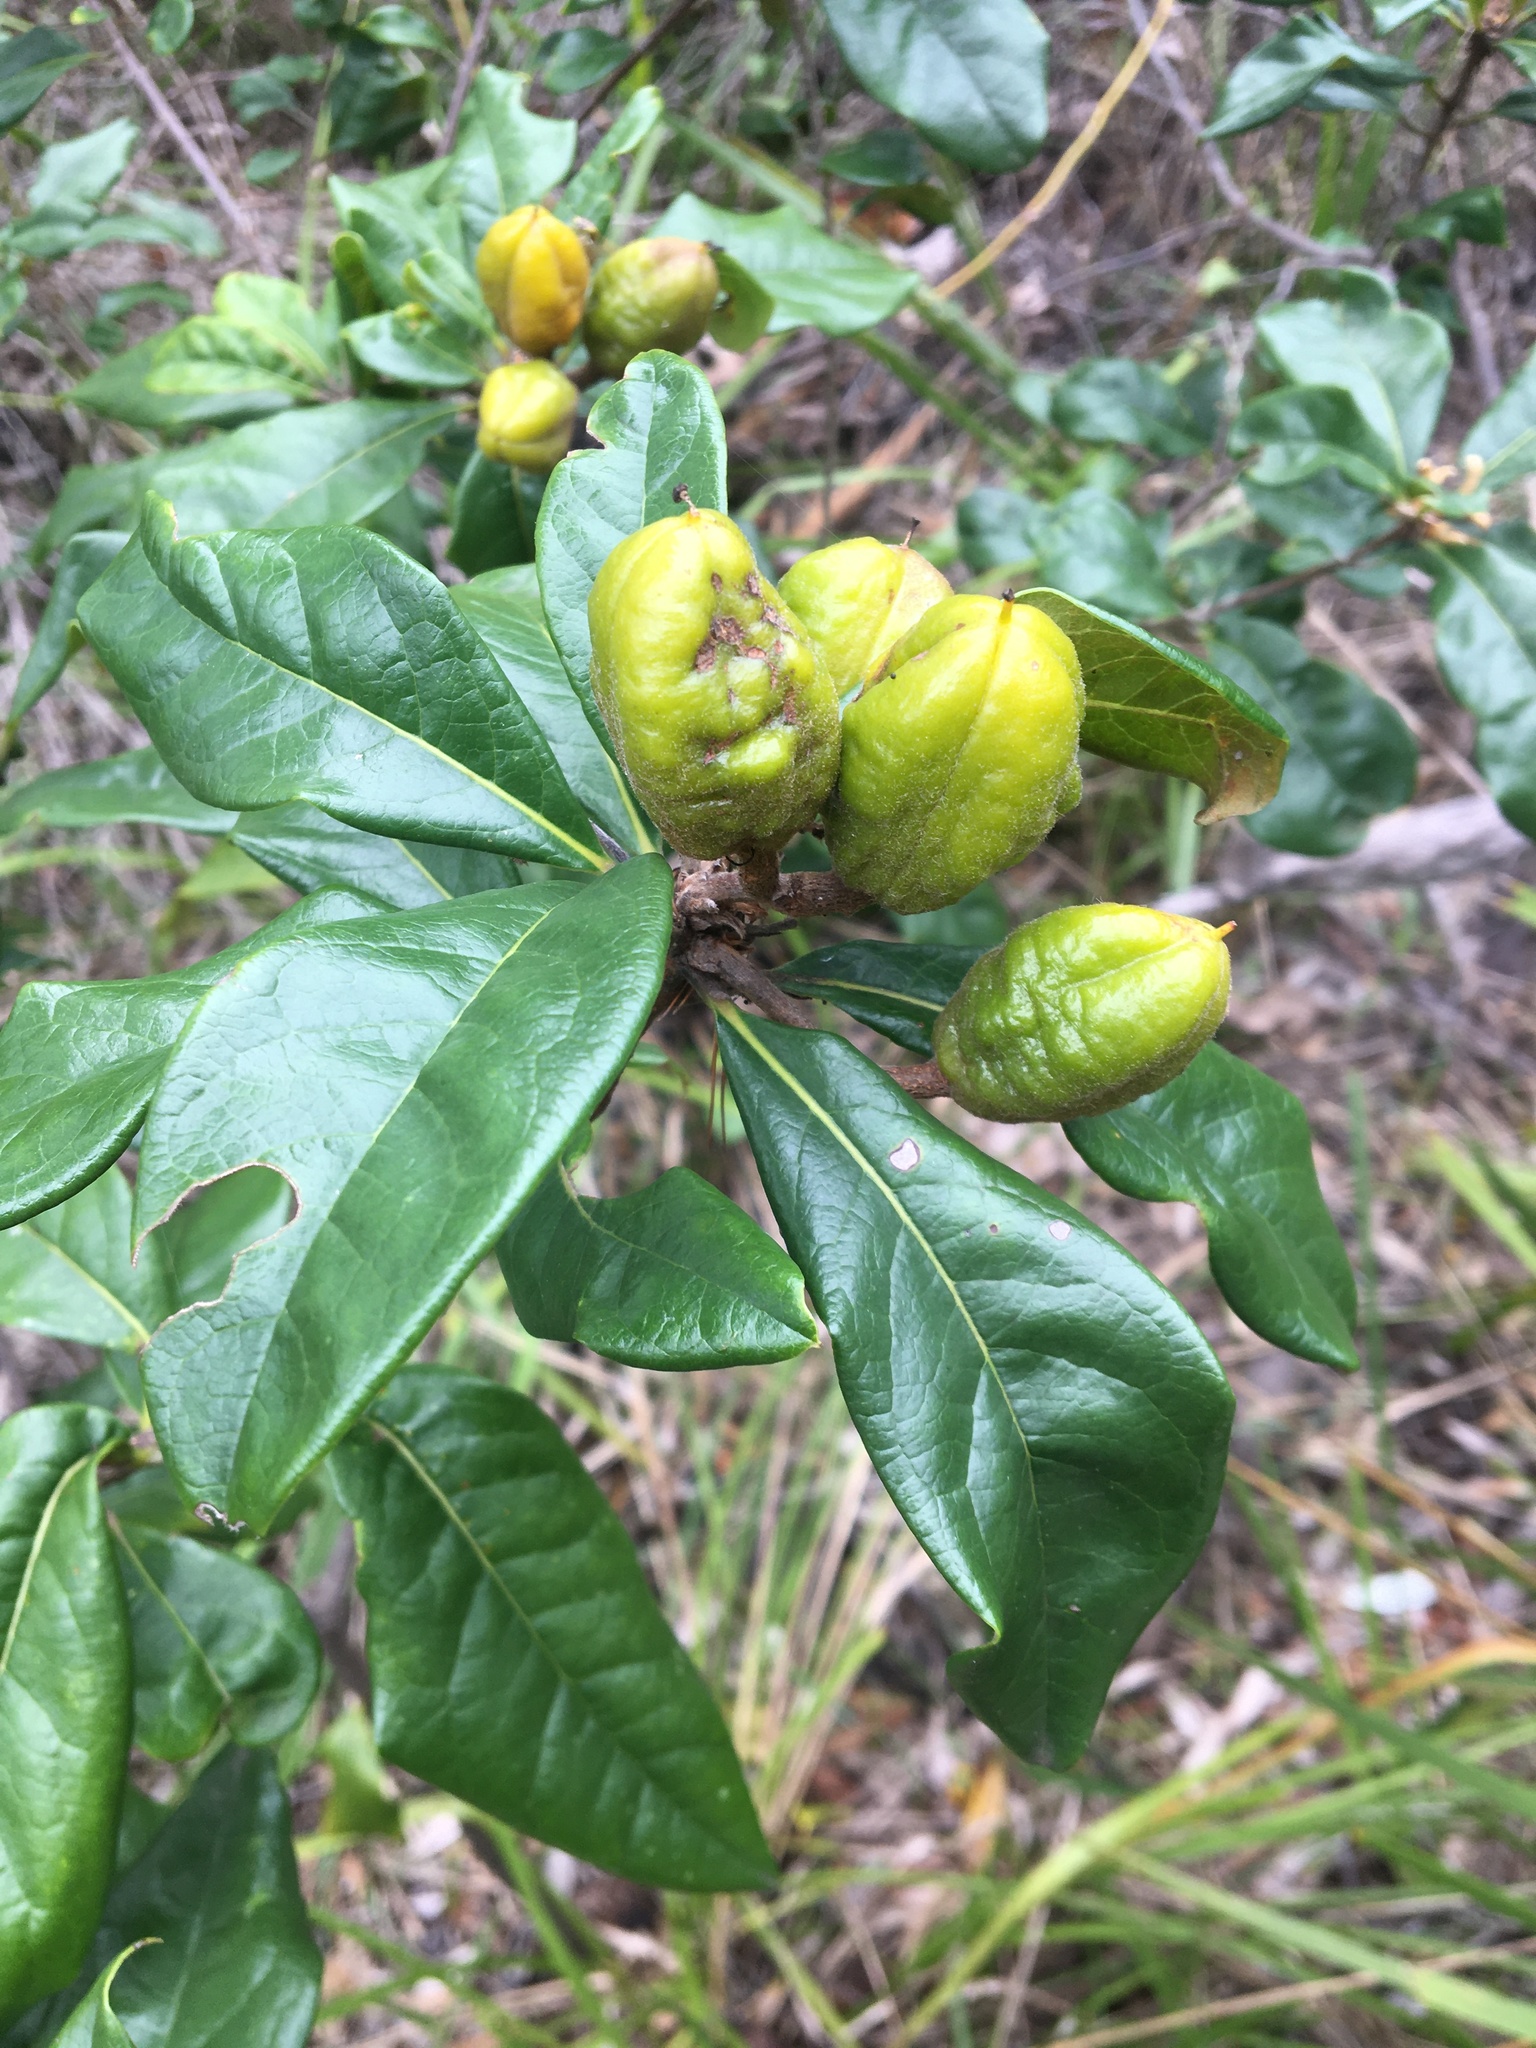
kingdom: Plantae
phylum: Tracheophyta
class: Magnoliopsida
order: Apiales
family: Pittosporaceae
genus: Pittosporum
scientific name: Pittosporum revolutum
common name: Brisbane-laurel
